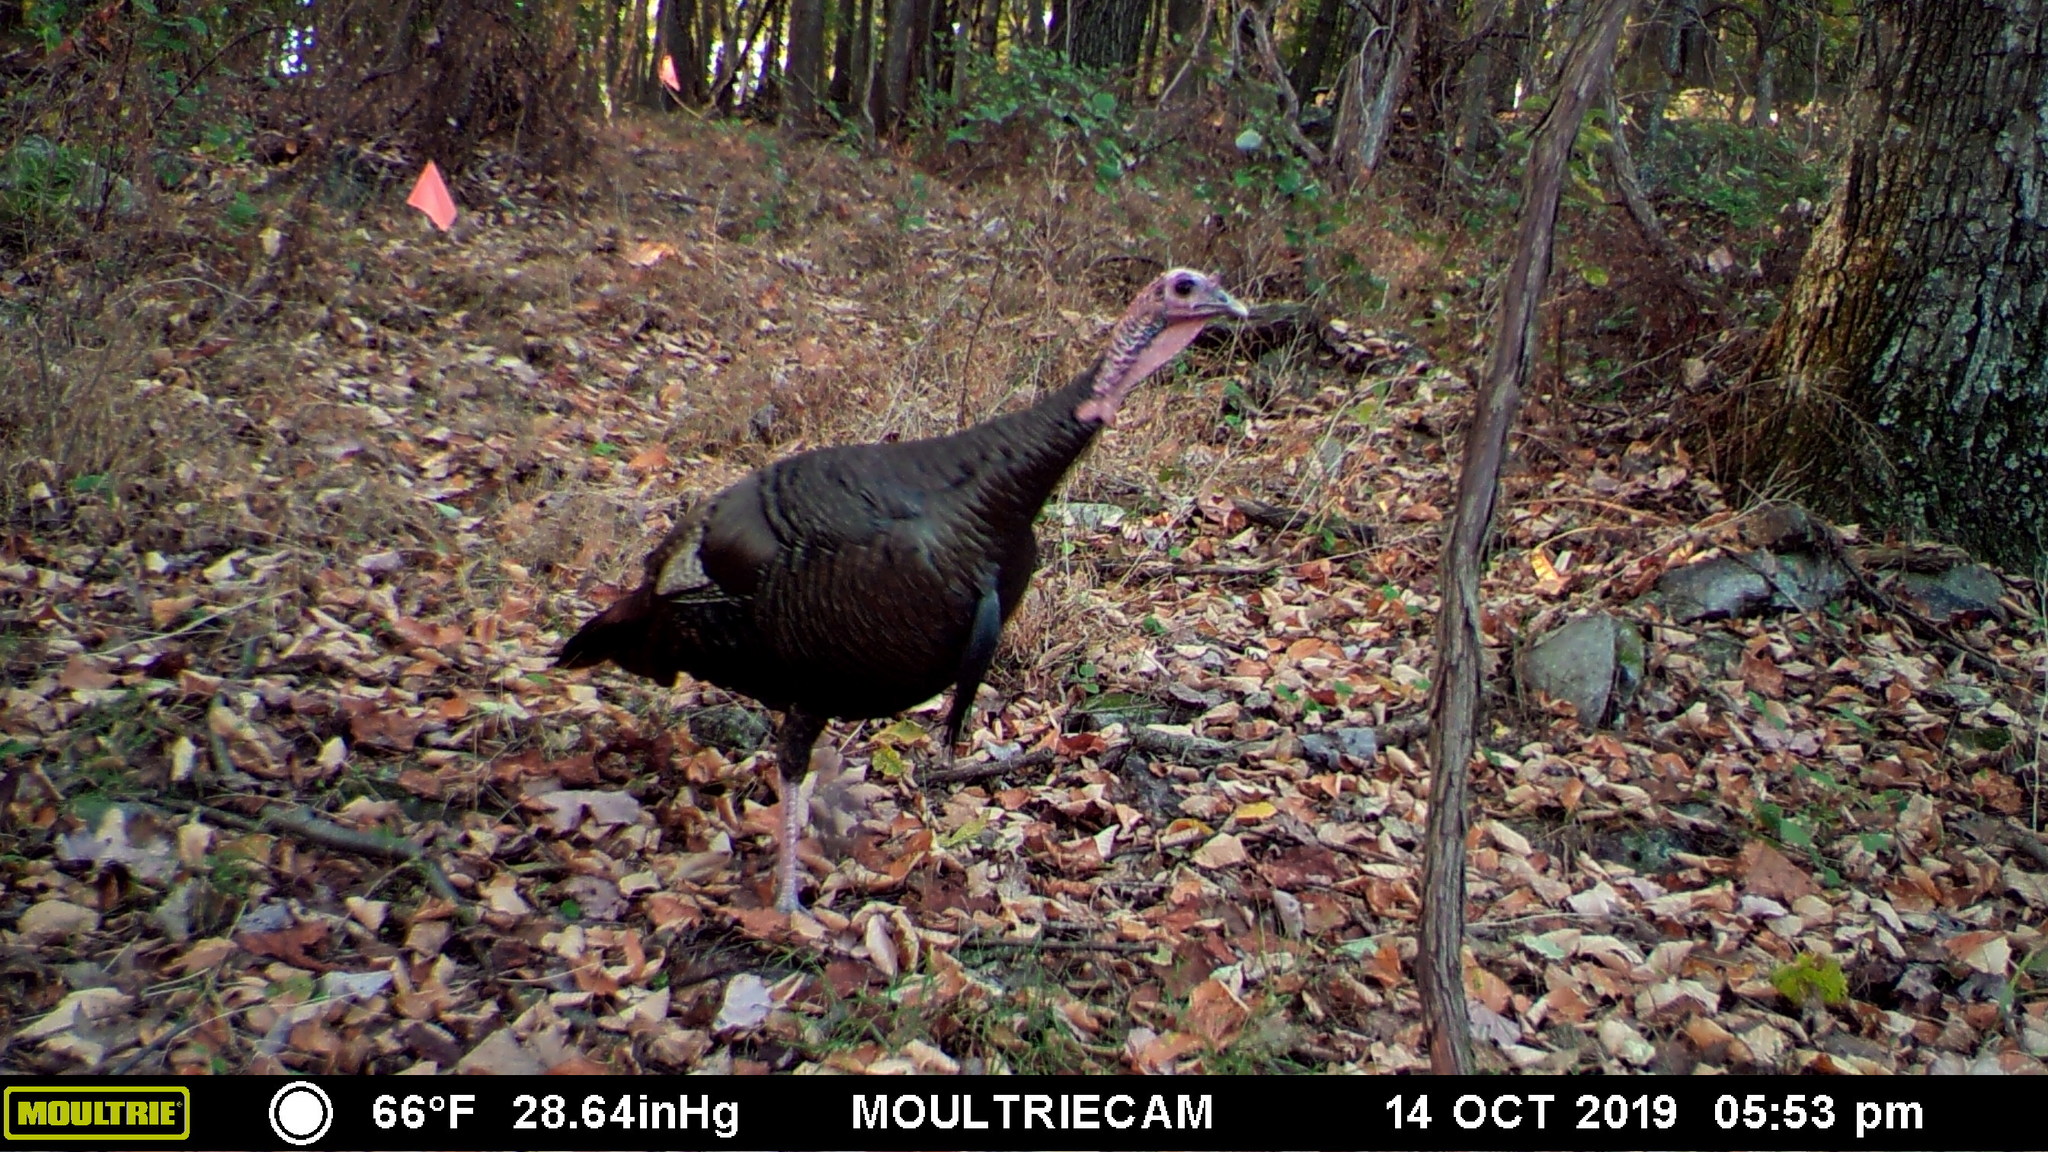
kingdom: Animalia
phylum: Chordata
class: Aves
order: Galliformes
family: Phasianidae
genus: Meleagris
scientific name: Meleagris gallopavo
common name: Wild turkey
